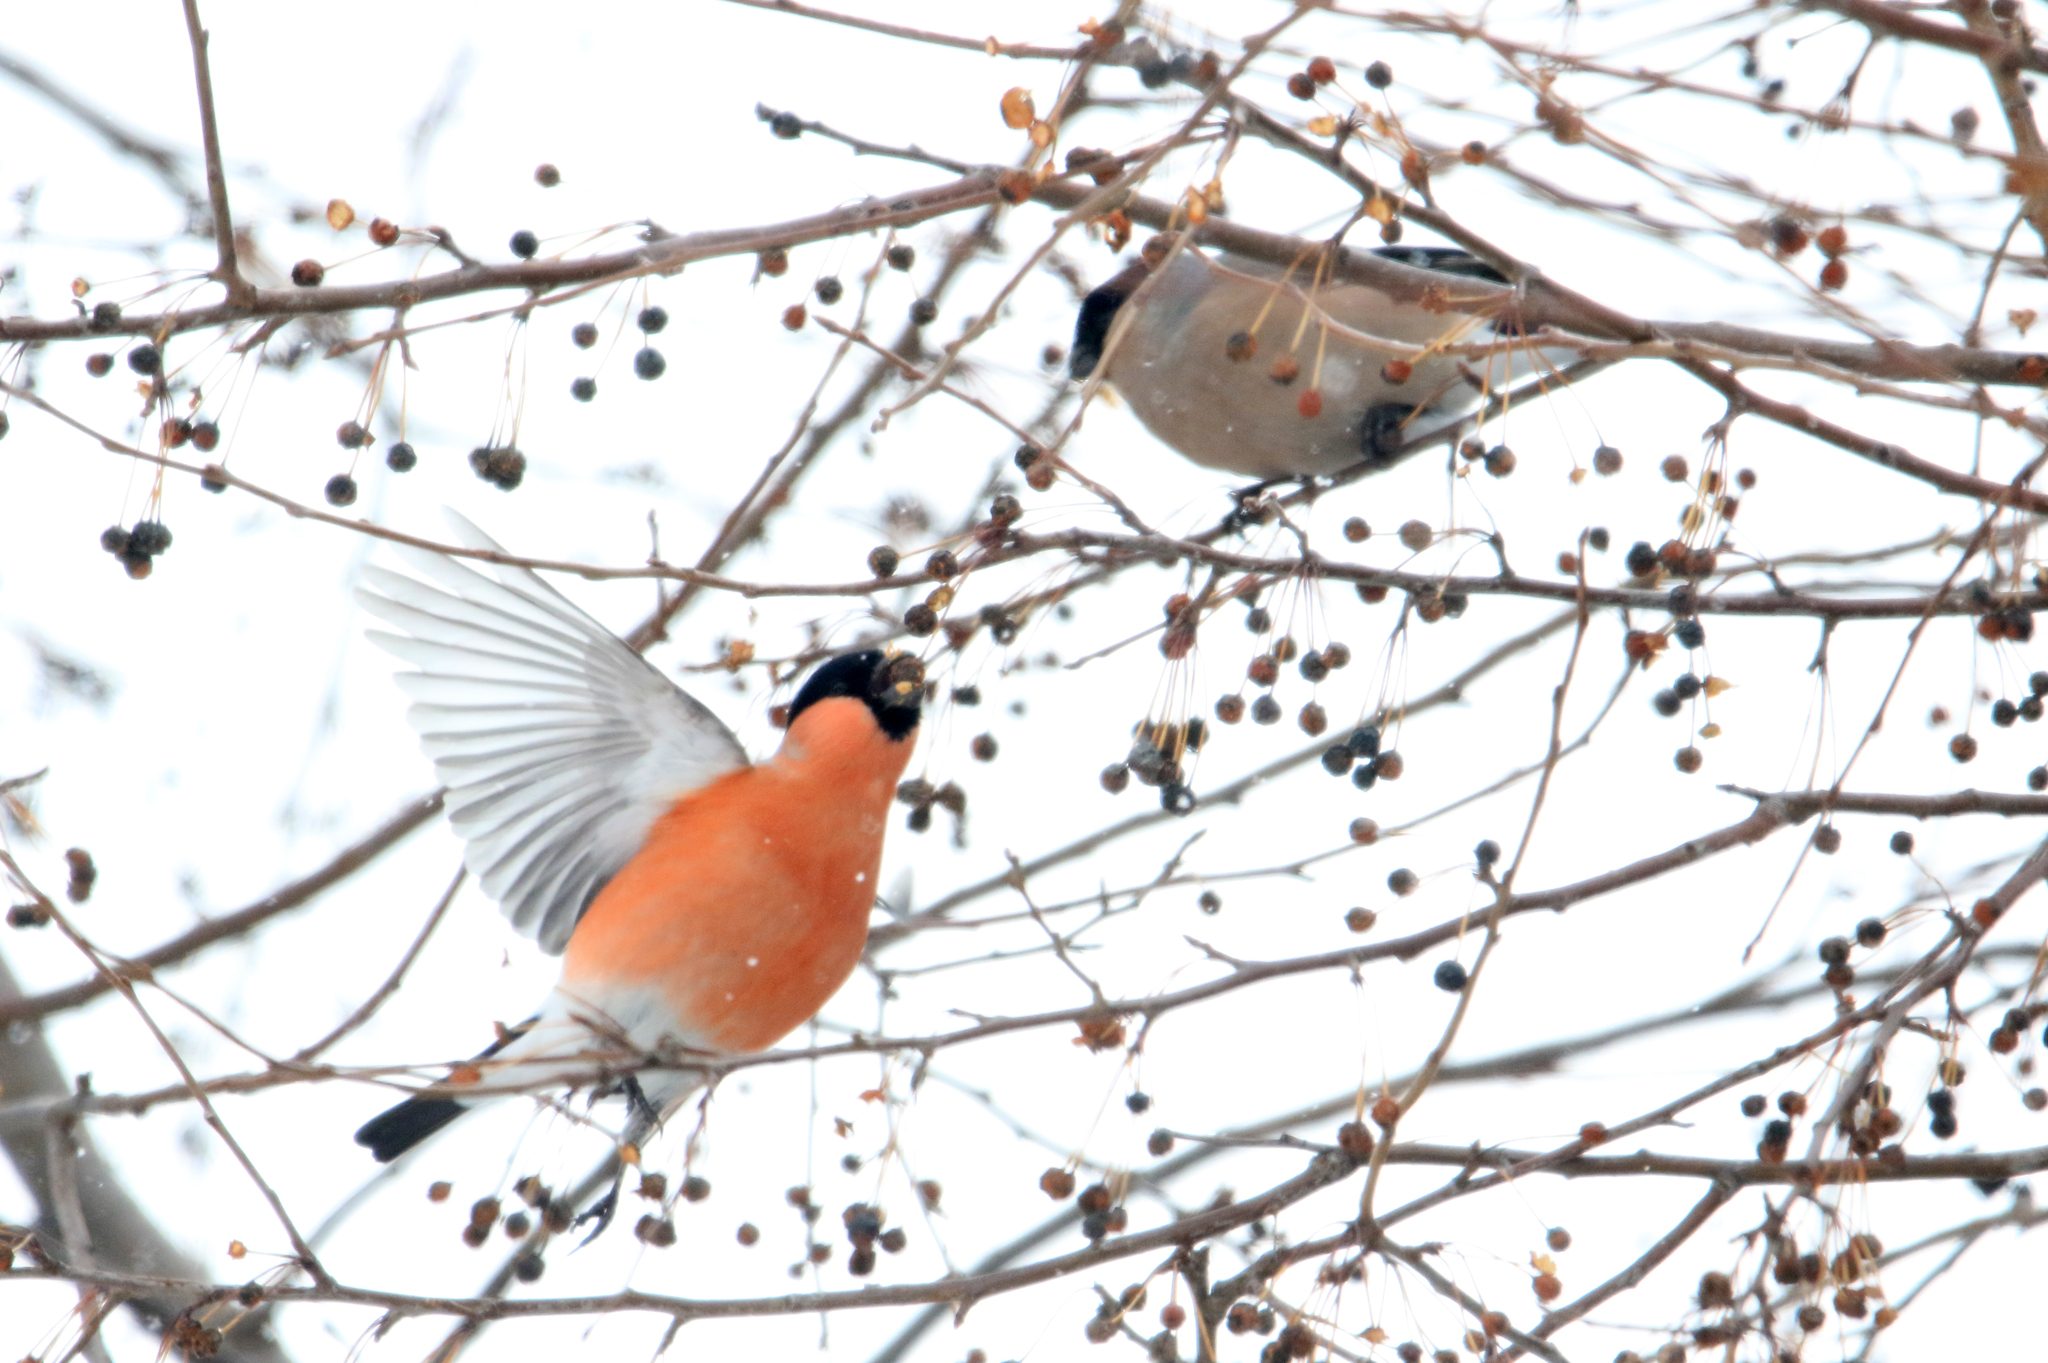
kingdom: Animalia
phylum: Chordata
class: Aves
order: Passeriformes
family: Fringillidae
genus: Pyrrhula
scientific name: Pyrrhula pyrrhula
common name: Eurasian bullfinch
